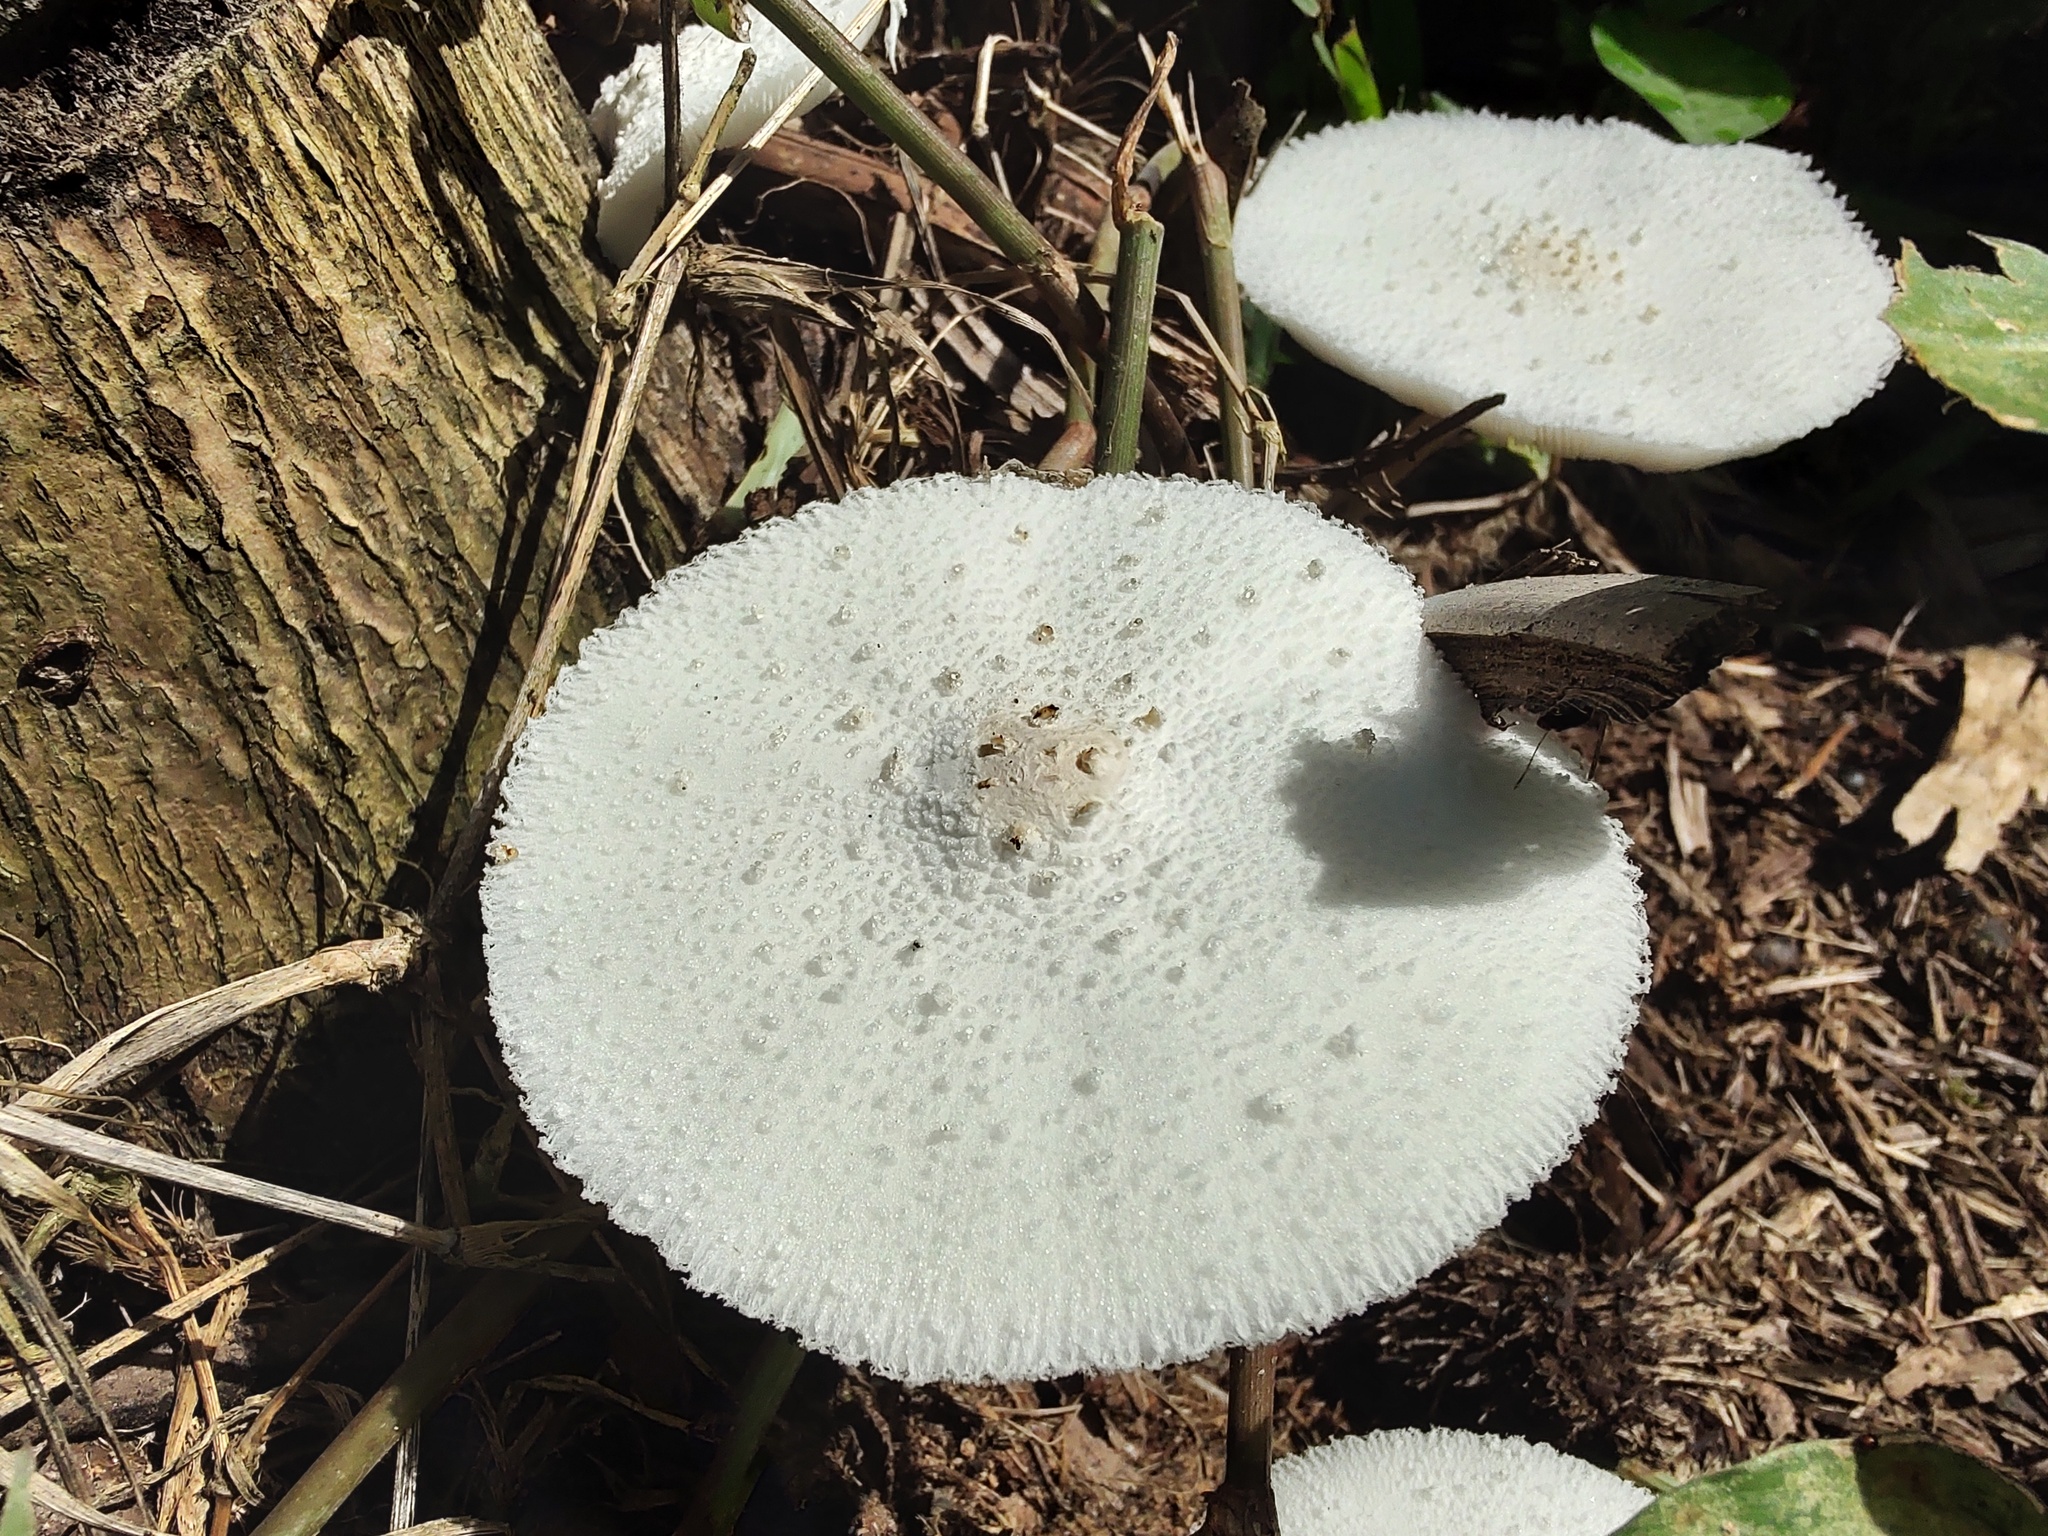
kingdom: Fungi
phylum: Basidiomycota
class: Agaricomycetes
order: Agaricales
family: Agaricaceae
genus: Leucocoprinus
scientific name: Leucocoprinus cretaceus
